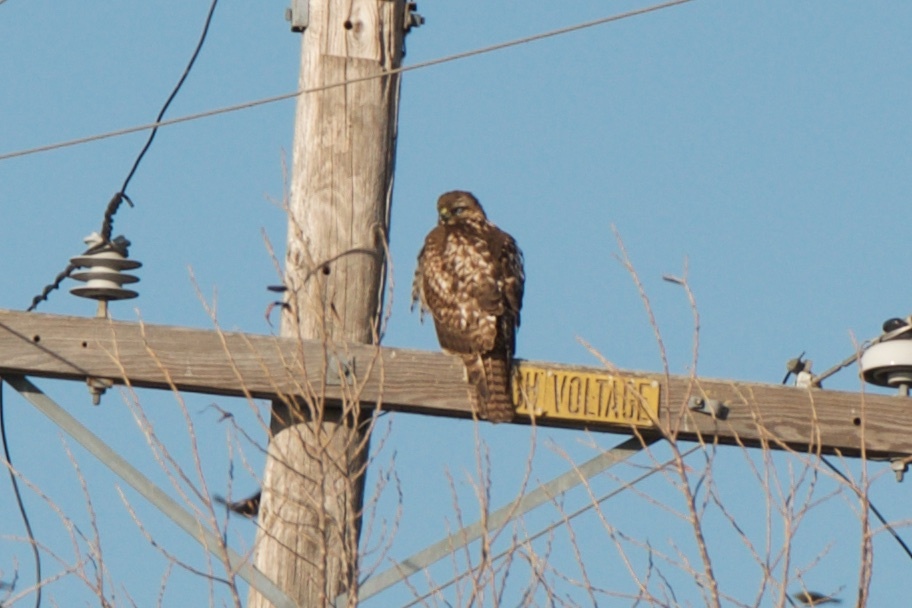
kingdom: Animalia
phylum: Chordata
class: Aves
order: Accipitriformes
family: Accipitridae
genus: Buteo
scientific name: Buteo jamaicensis
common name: Red-tailed hawk
